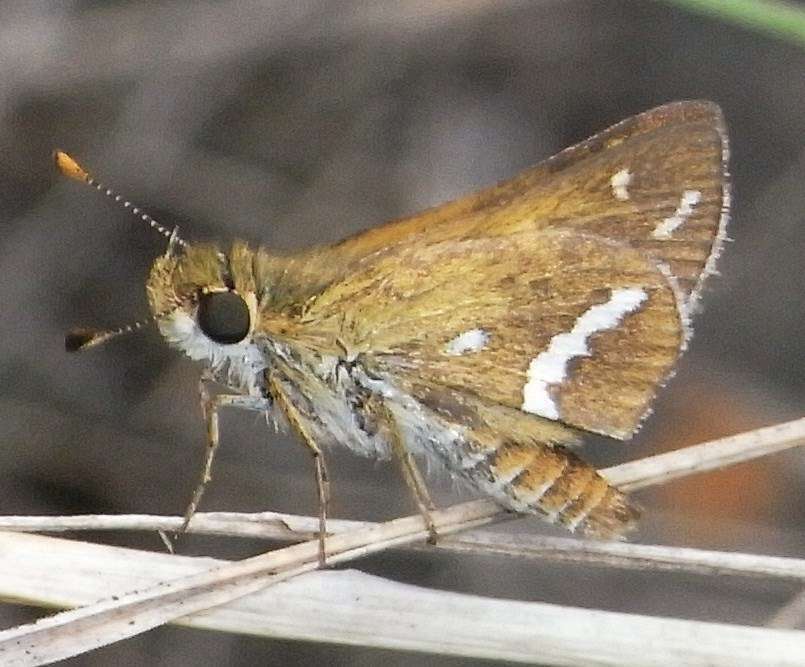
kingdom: Animalia
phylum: Arthropoda
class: Insecta
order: Lepidoptera
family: Hesperiidae
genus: Taractrocera
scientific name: Taractrocera papyria
